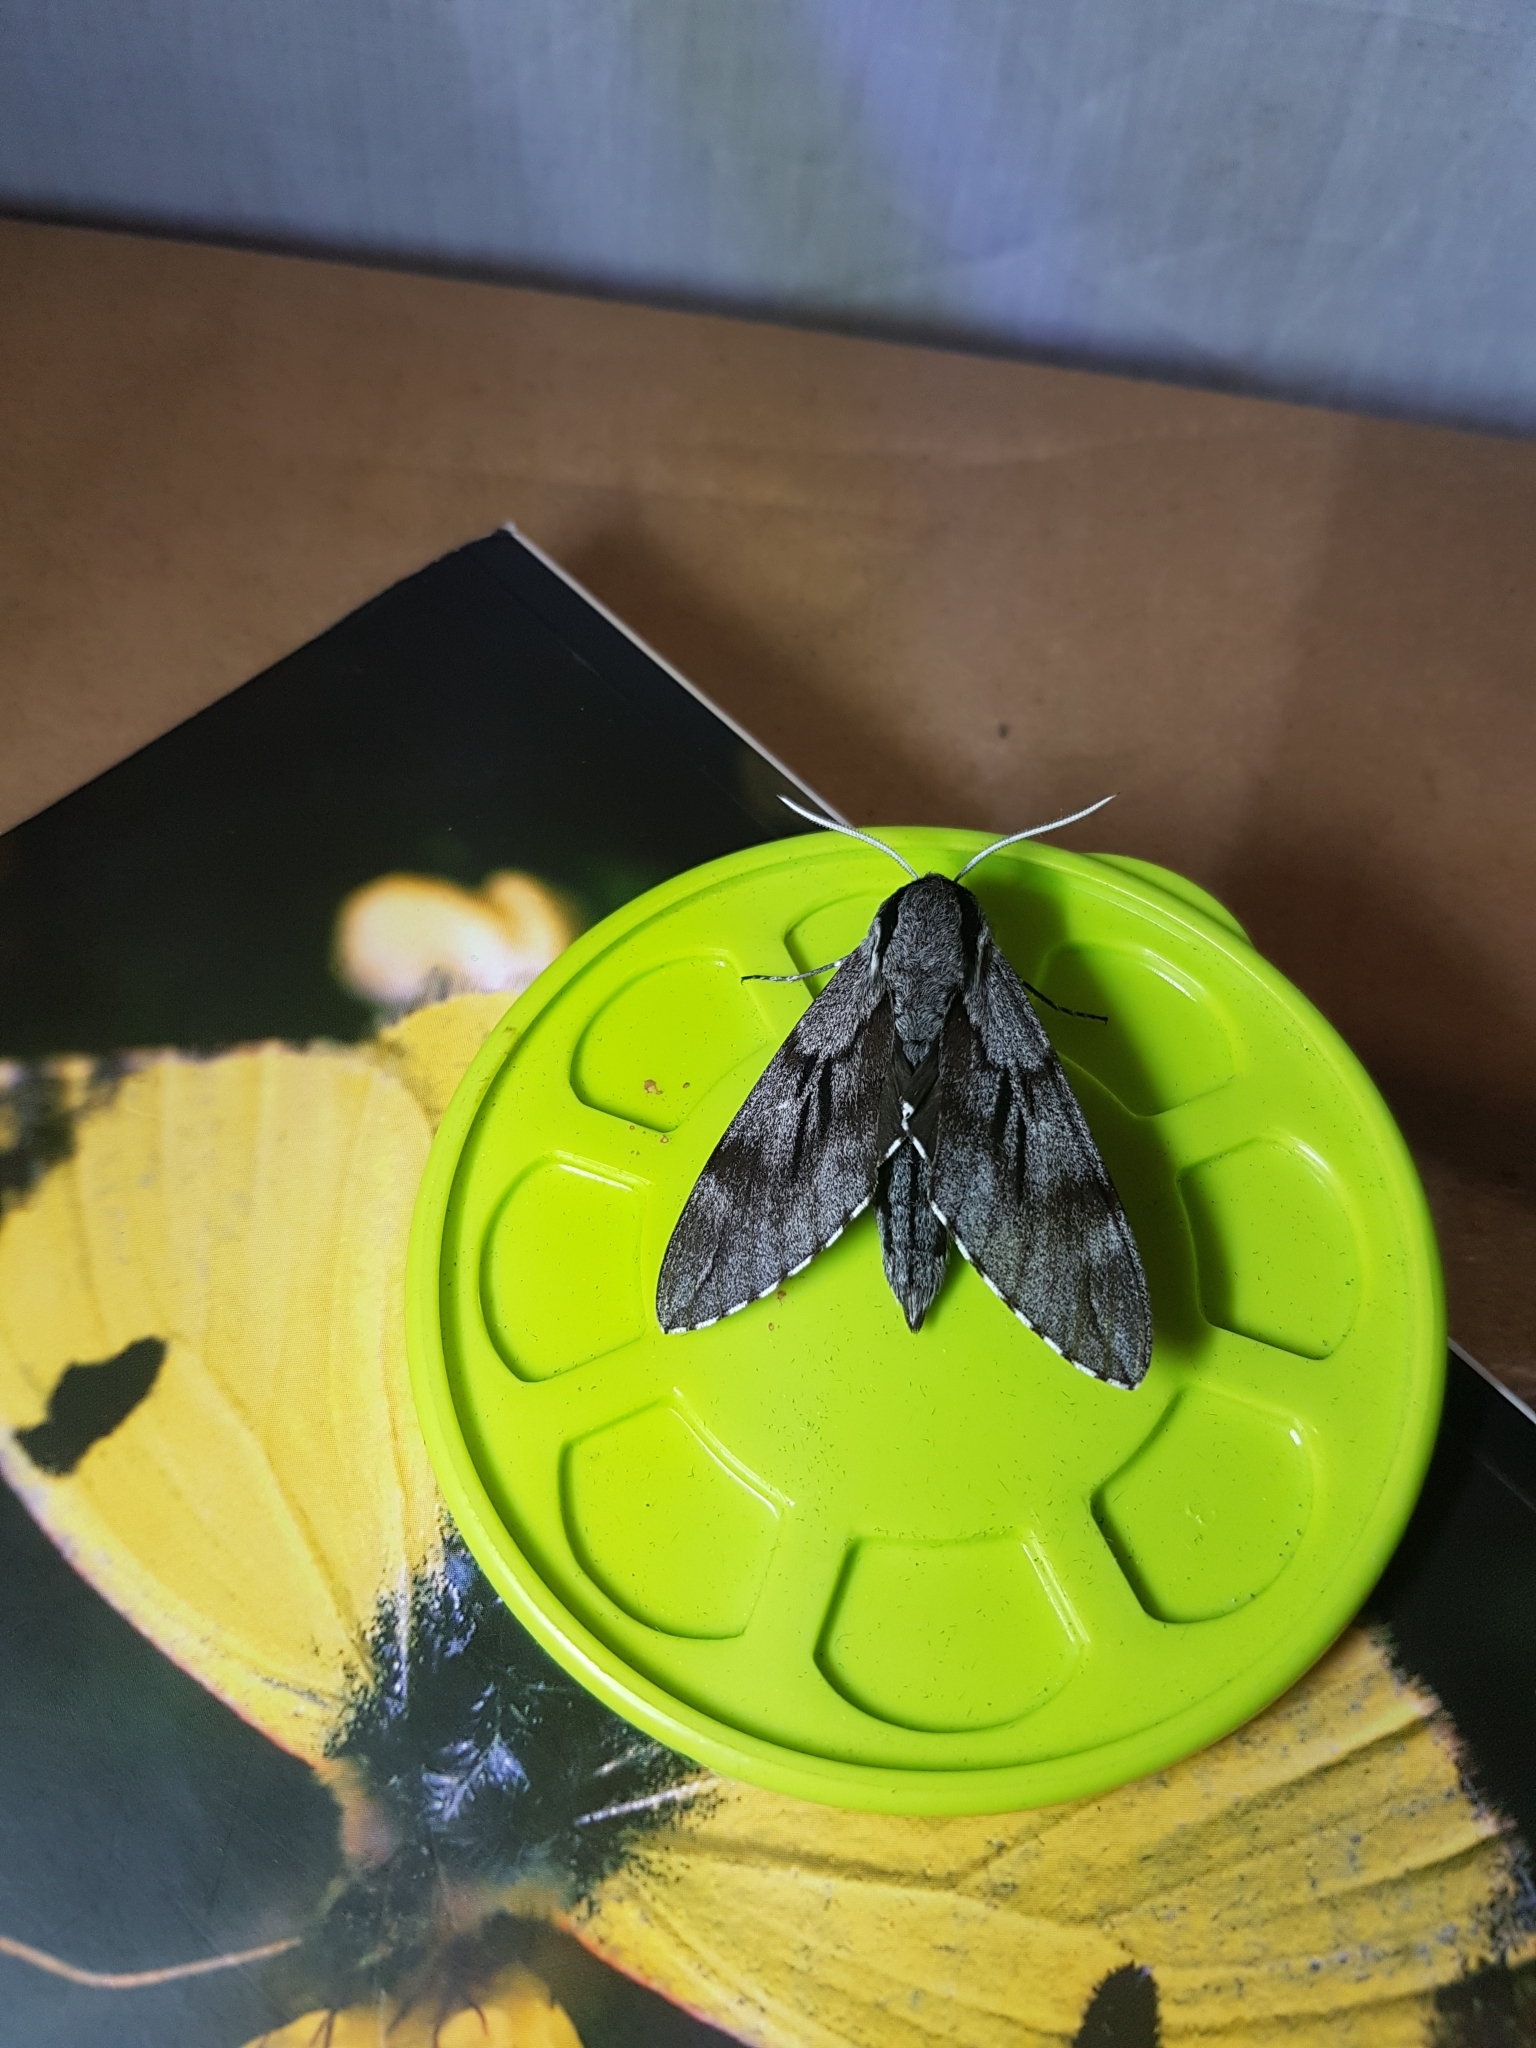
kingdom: Animalia
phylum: Arthropoda
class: Insecta
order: Lepidoptera
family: Sphingidae
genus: Sphinx
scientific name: Sphinx maurorum
